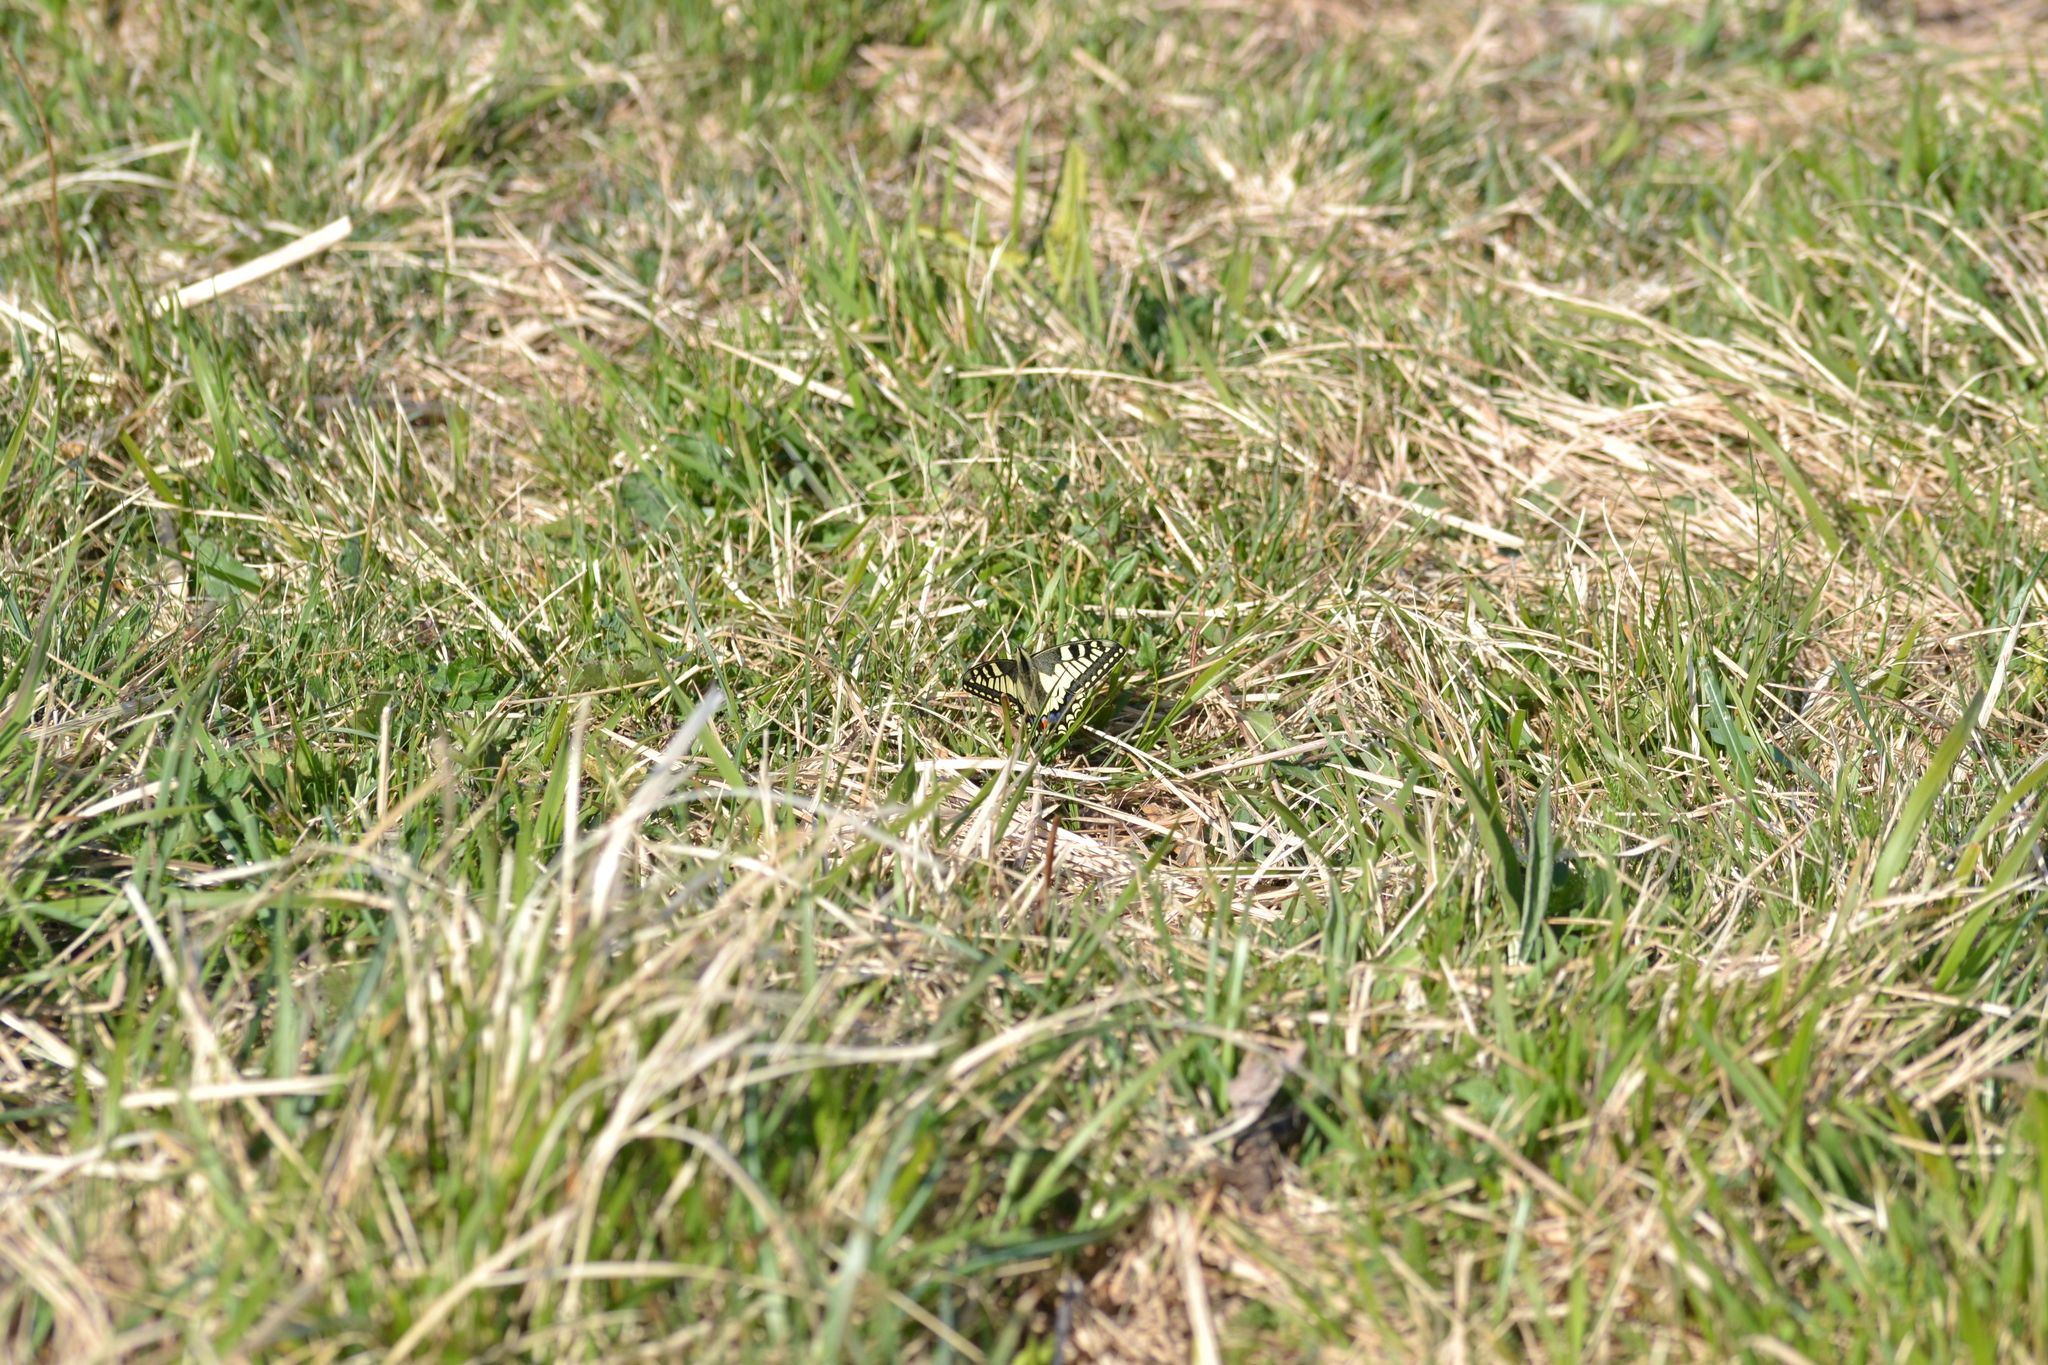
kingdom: Animalia
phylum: Arthropoda
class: Insecta
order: Lepidoptera
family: Papilionidae
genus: Papilio
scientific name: Papilio machaon
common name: Swallowtail
